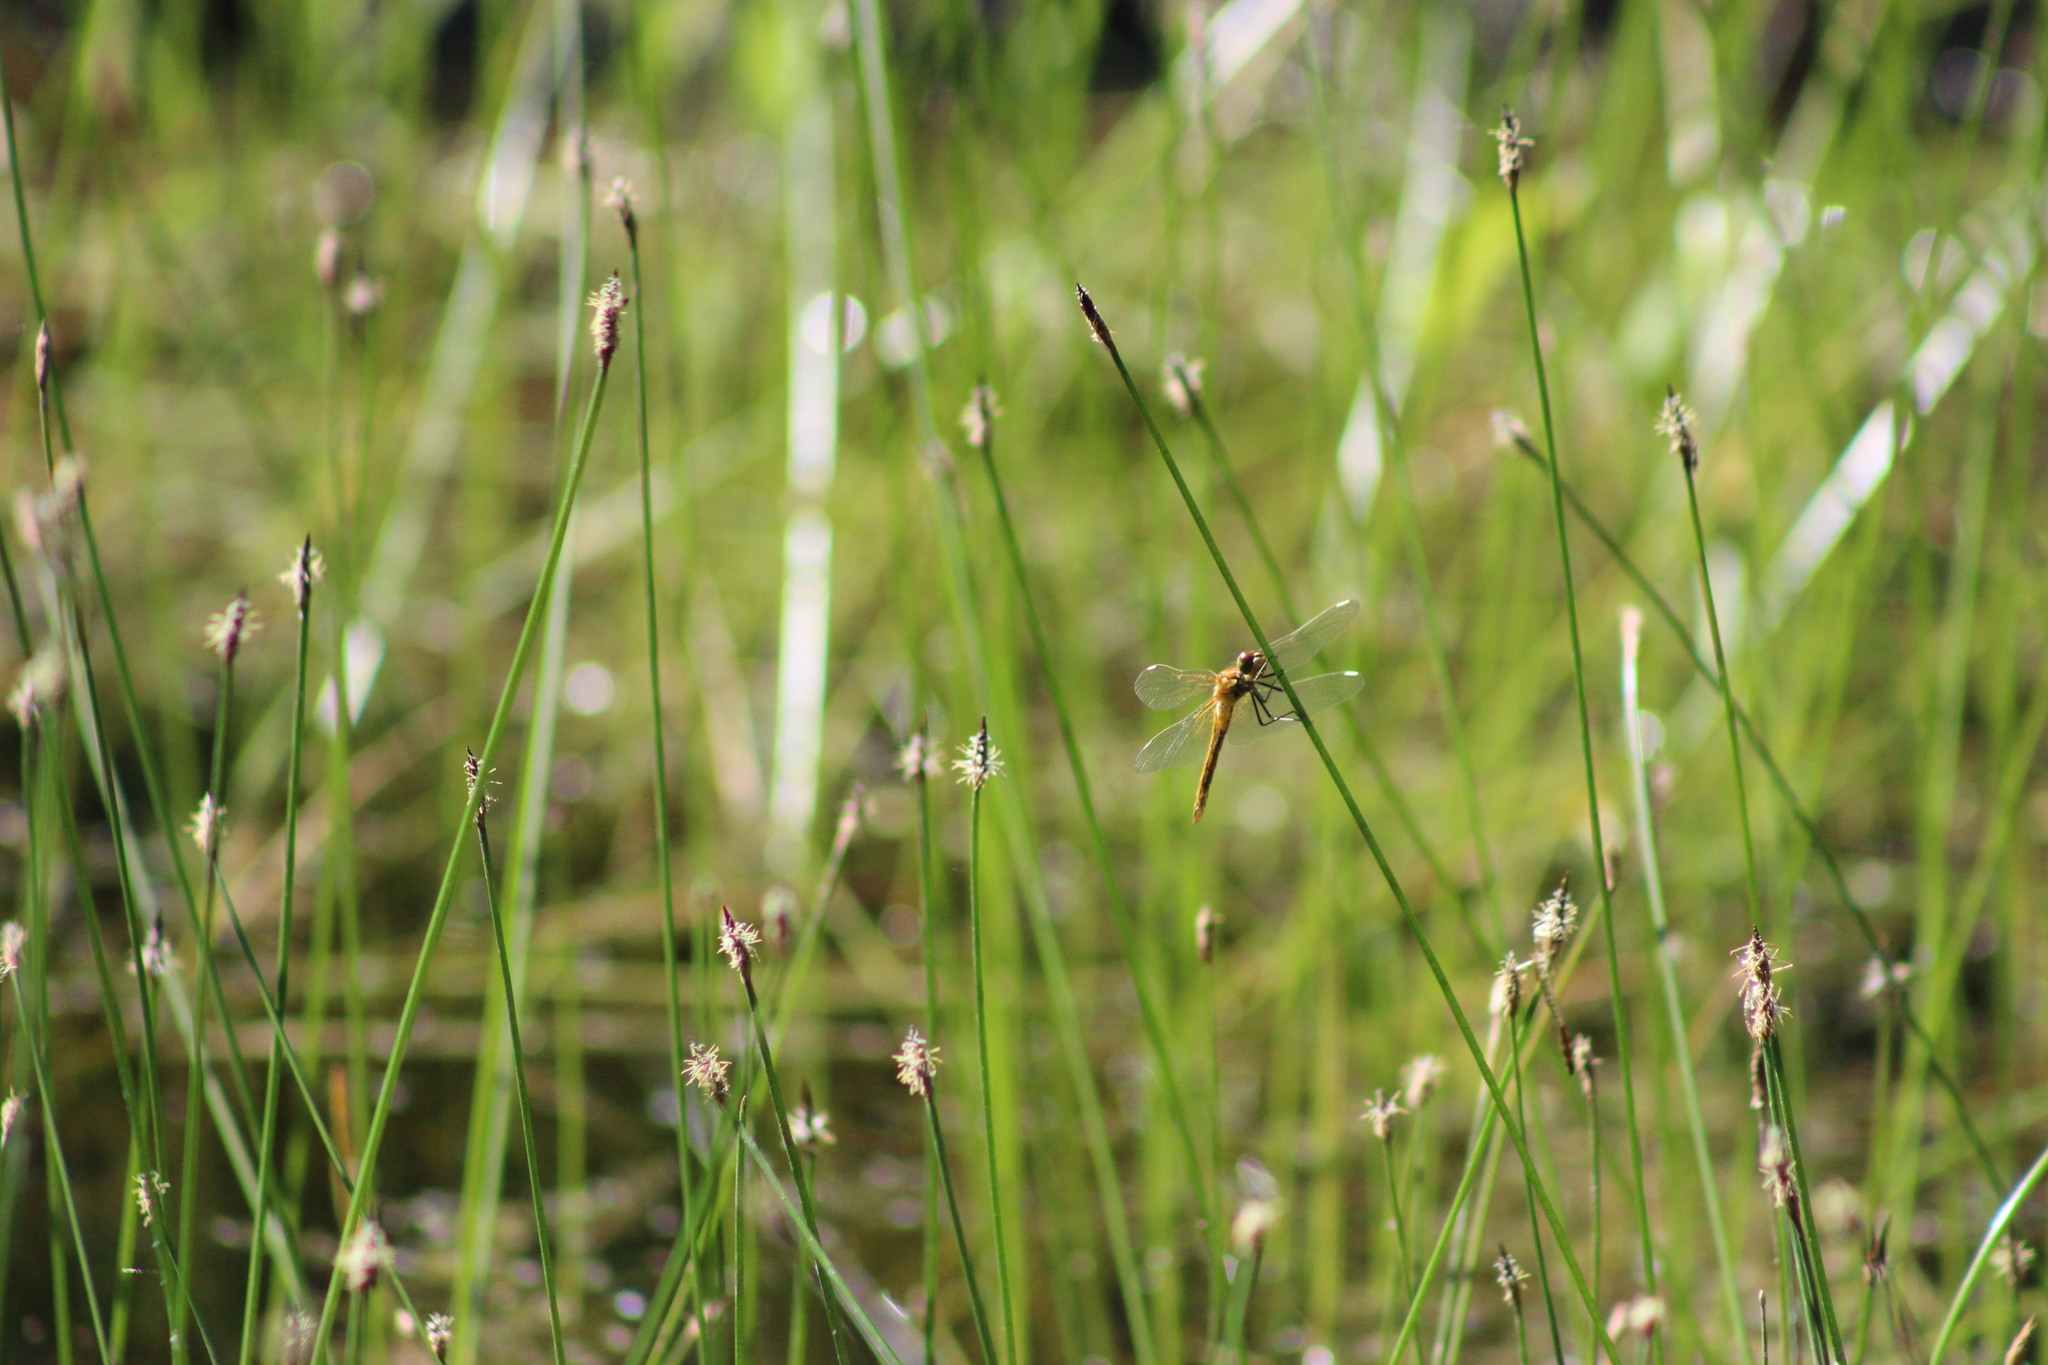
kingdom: Animalia
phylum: Arthropoda
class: Insecta
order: Odonata
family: Libellulidae
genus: Sympetrum
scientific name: Sympetrum flaveolum
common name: Yellow-winged darter
